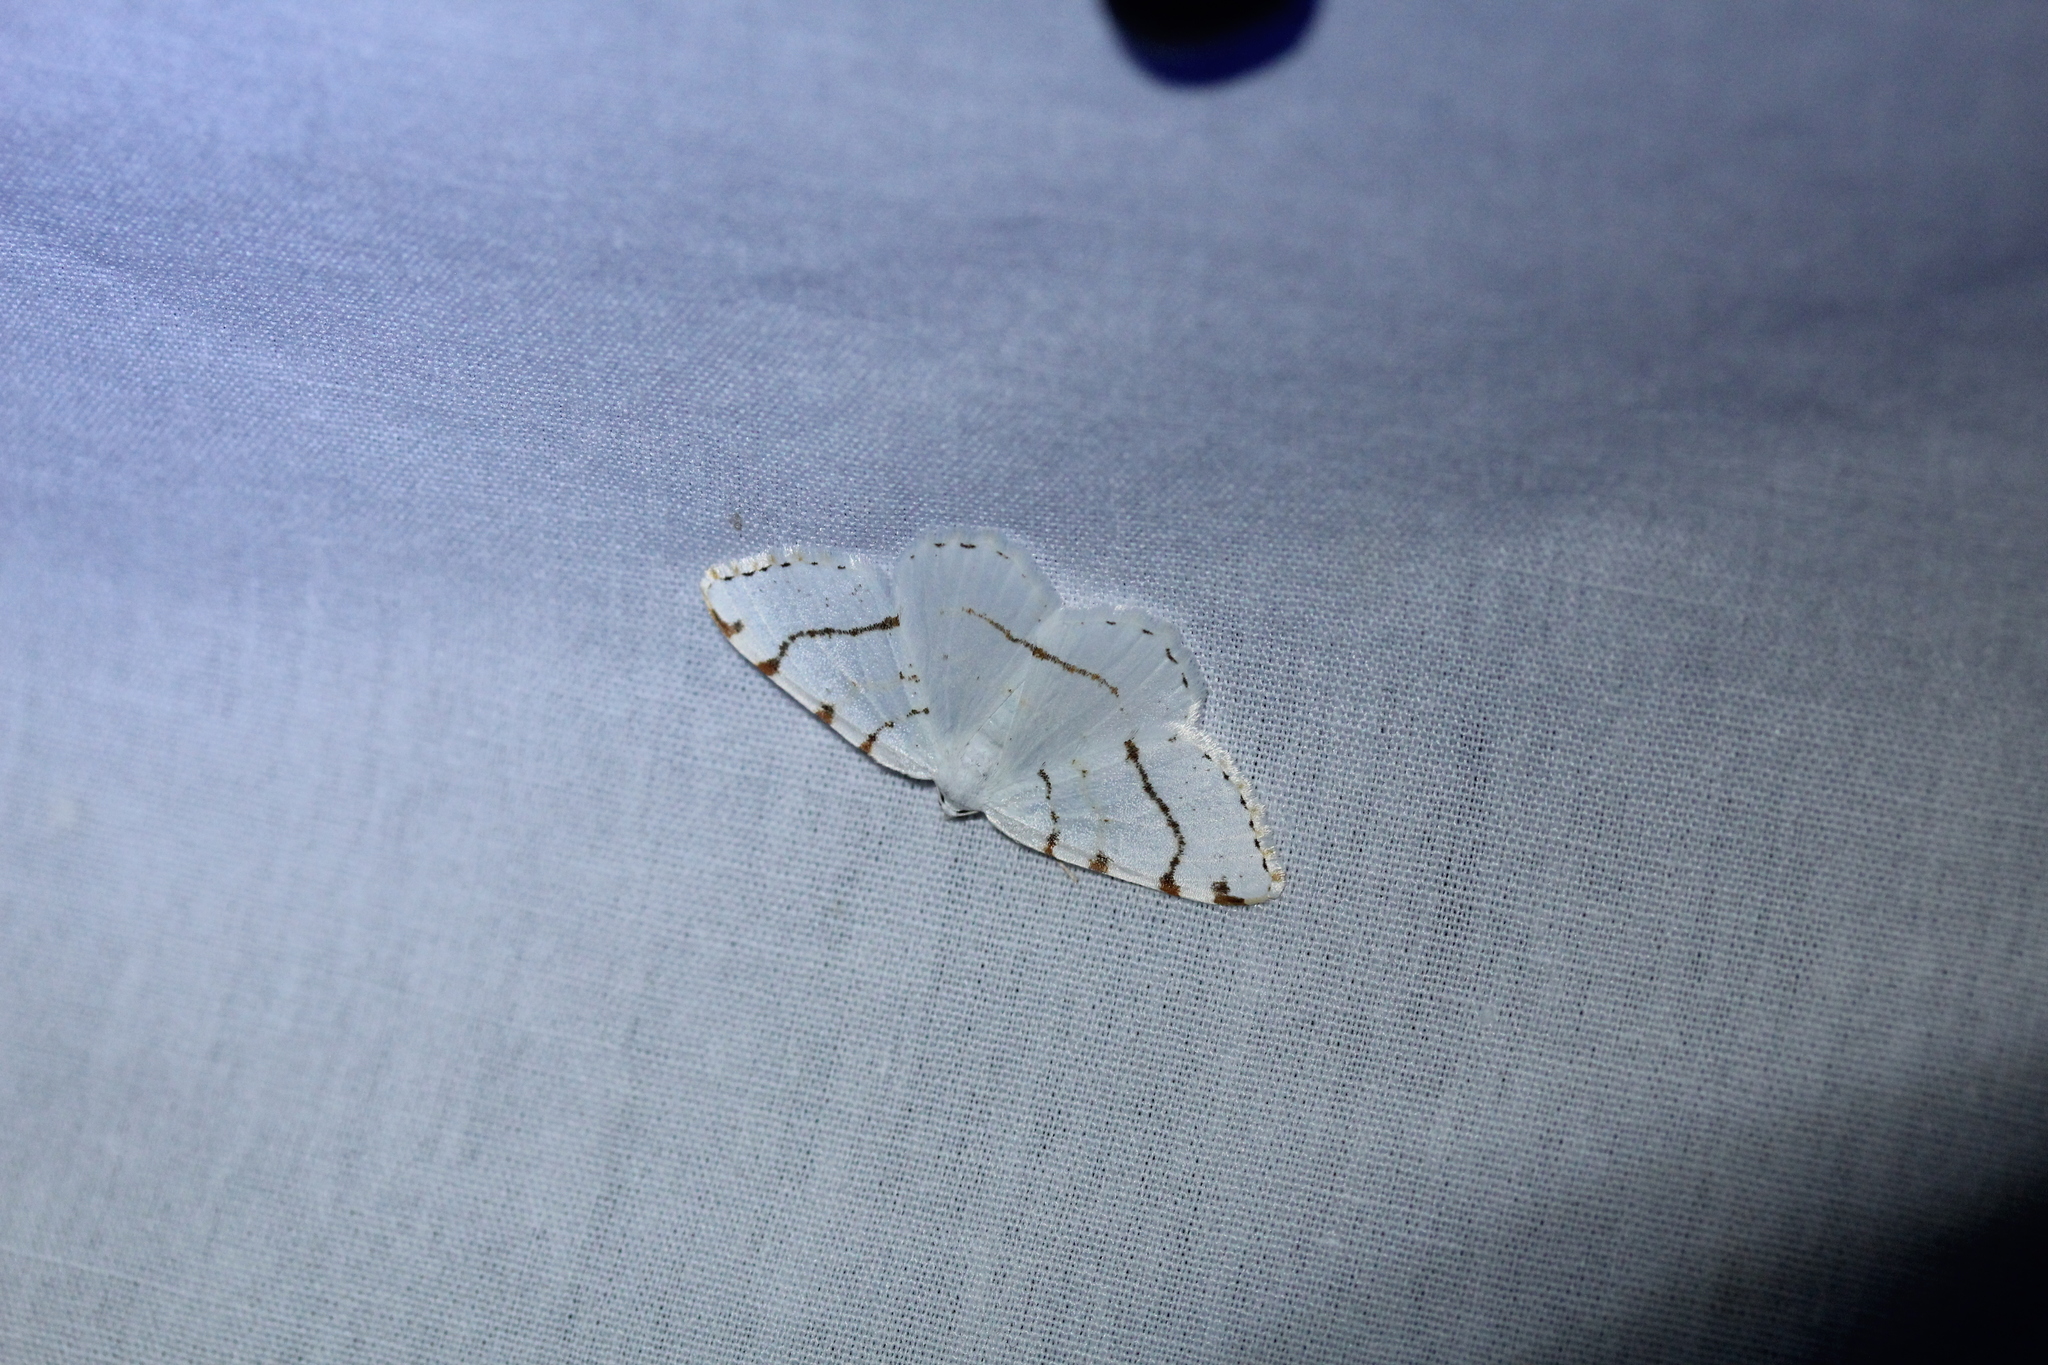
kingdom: Animalia
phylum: Arthropoda
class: Insecta
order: Lepidoptera
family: Geometridae
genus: Macaria
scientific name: Macaria pustularia
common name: Lesser maple spanworm moth
